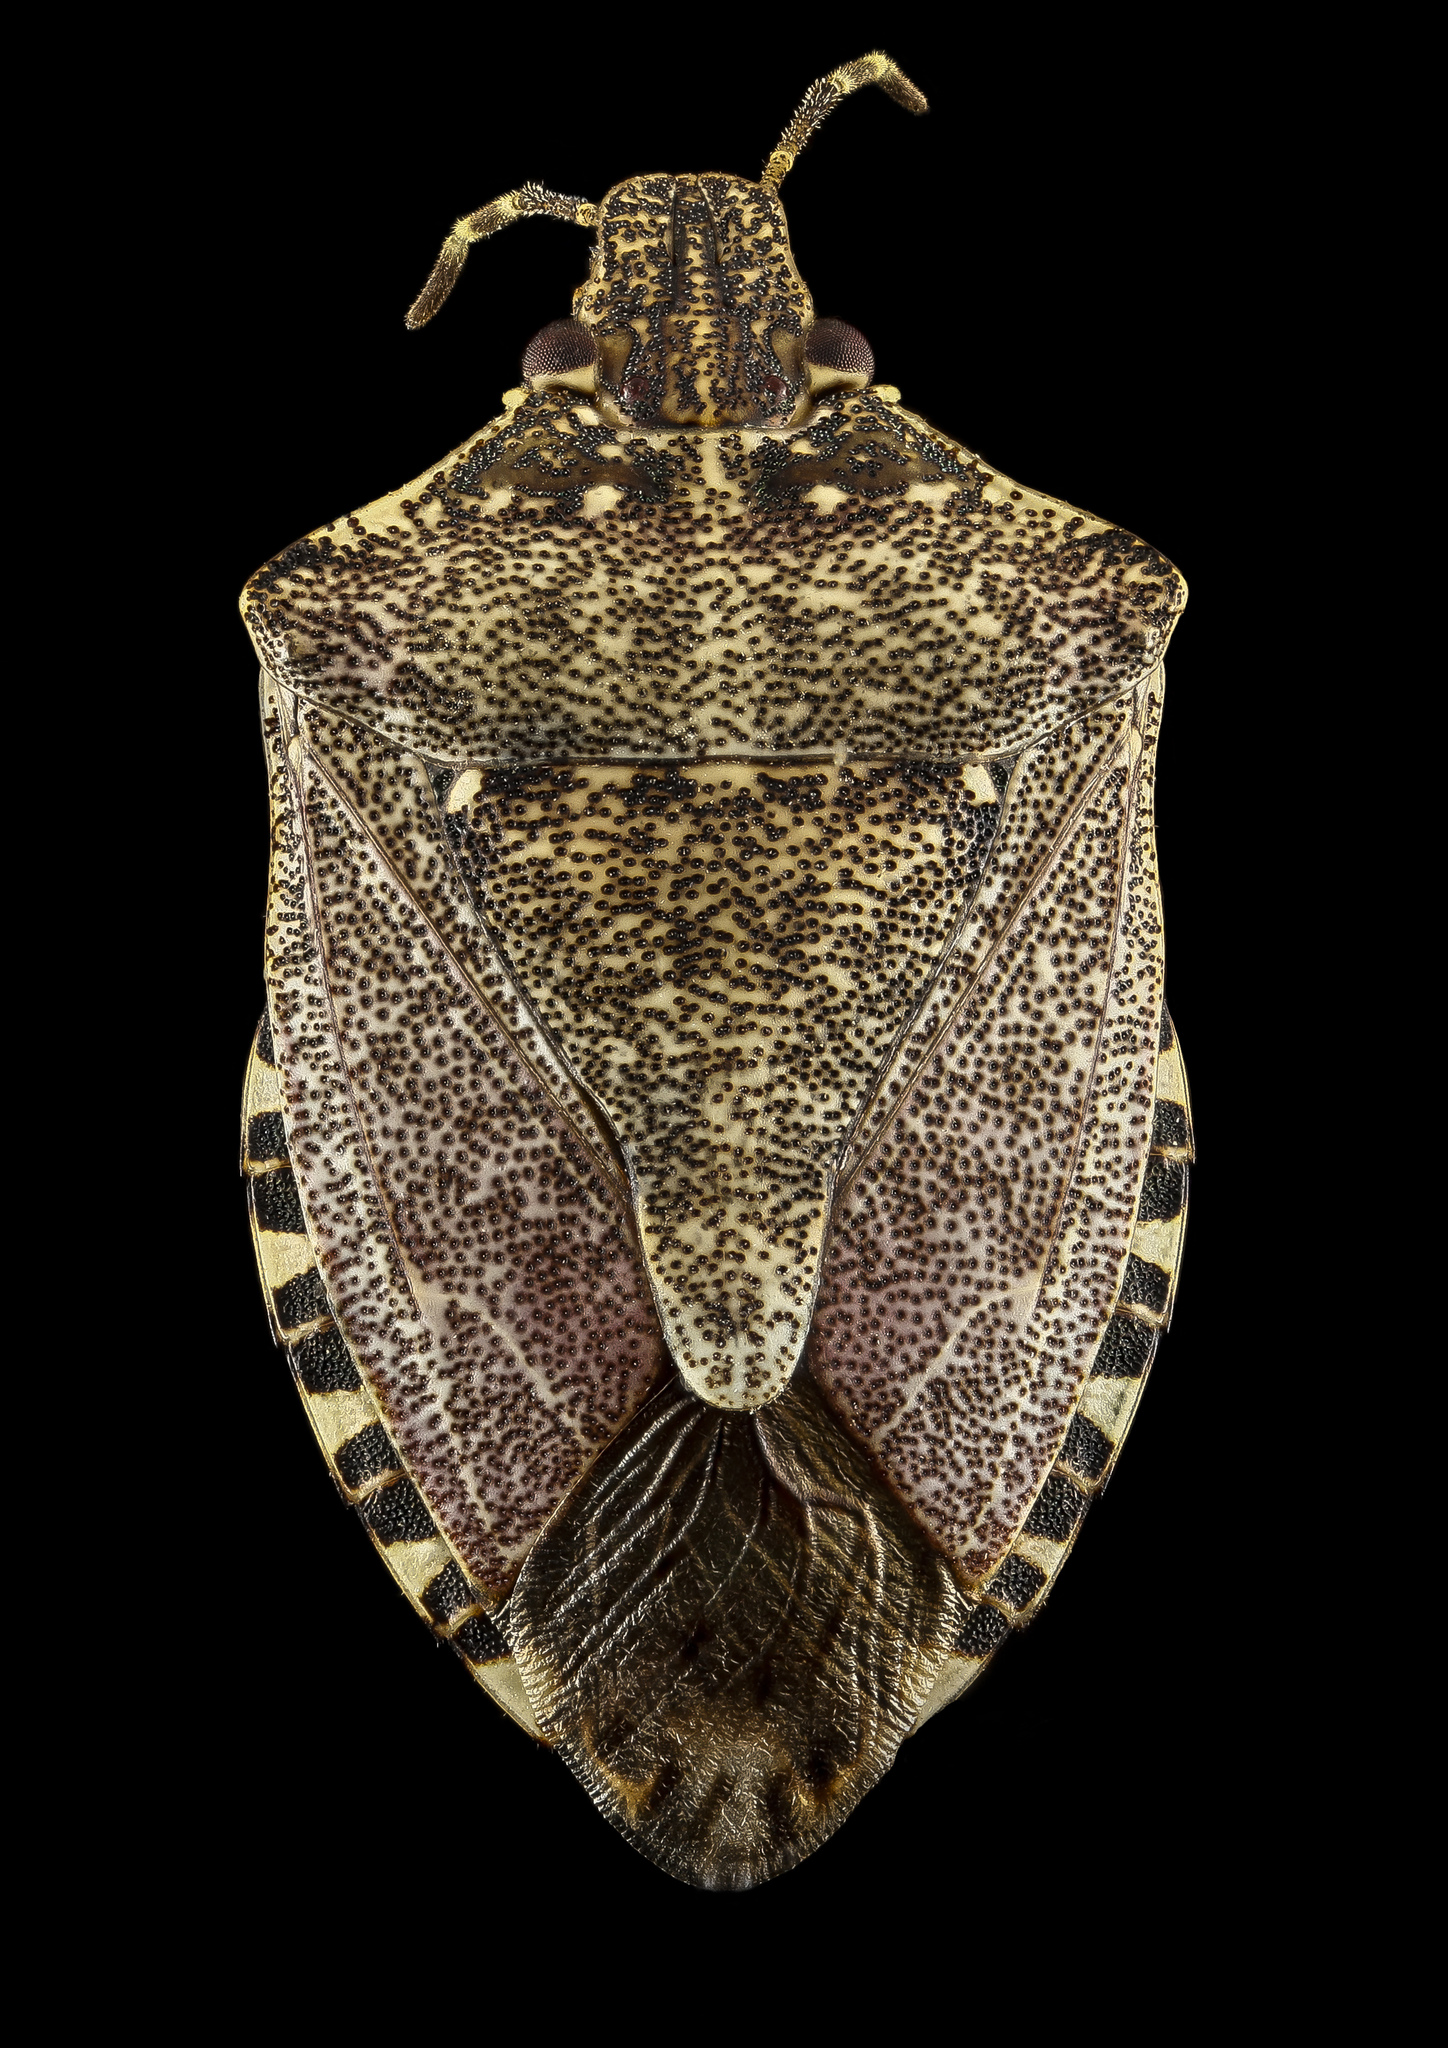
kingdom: Animalia
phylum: Arthropoda
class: Insecta
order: Hemiptera
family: Pentatomidae
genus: Halyomorpha
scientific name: Halyomorpha halys
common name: Brown marmorated stink bug
